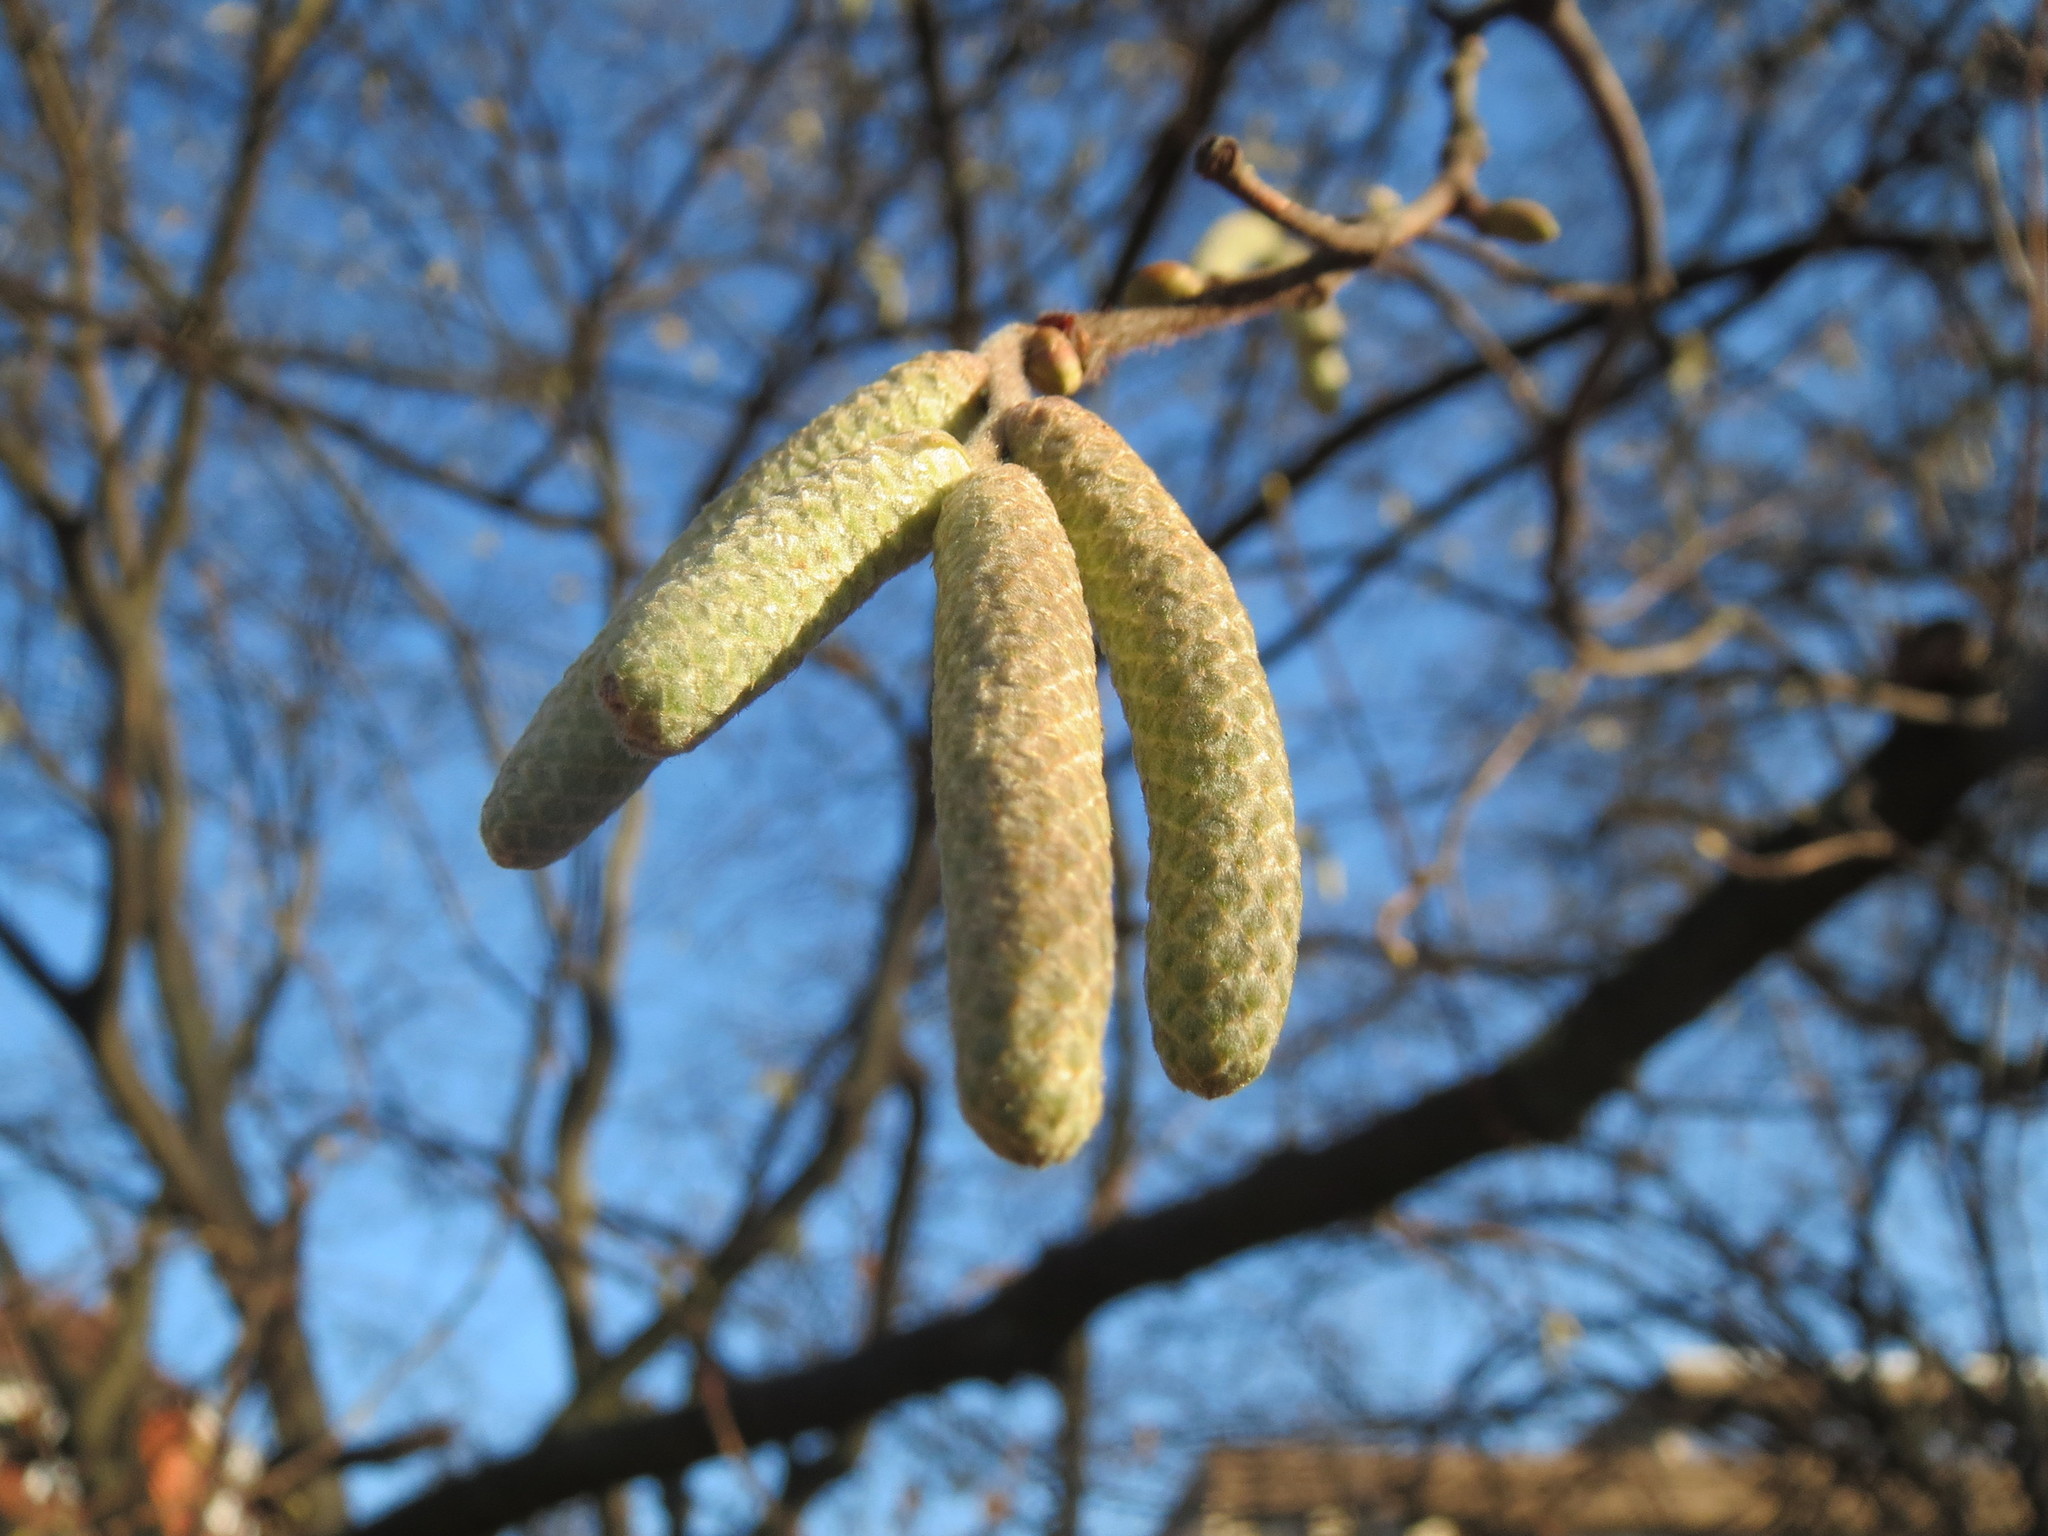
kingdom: Plantae
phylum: Tracheophyta
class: Magnoliopsida
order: Fagales
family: Betulaceae
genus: Corylus
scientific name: Corylus avellana
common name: European hazel
